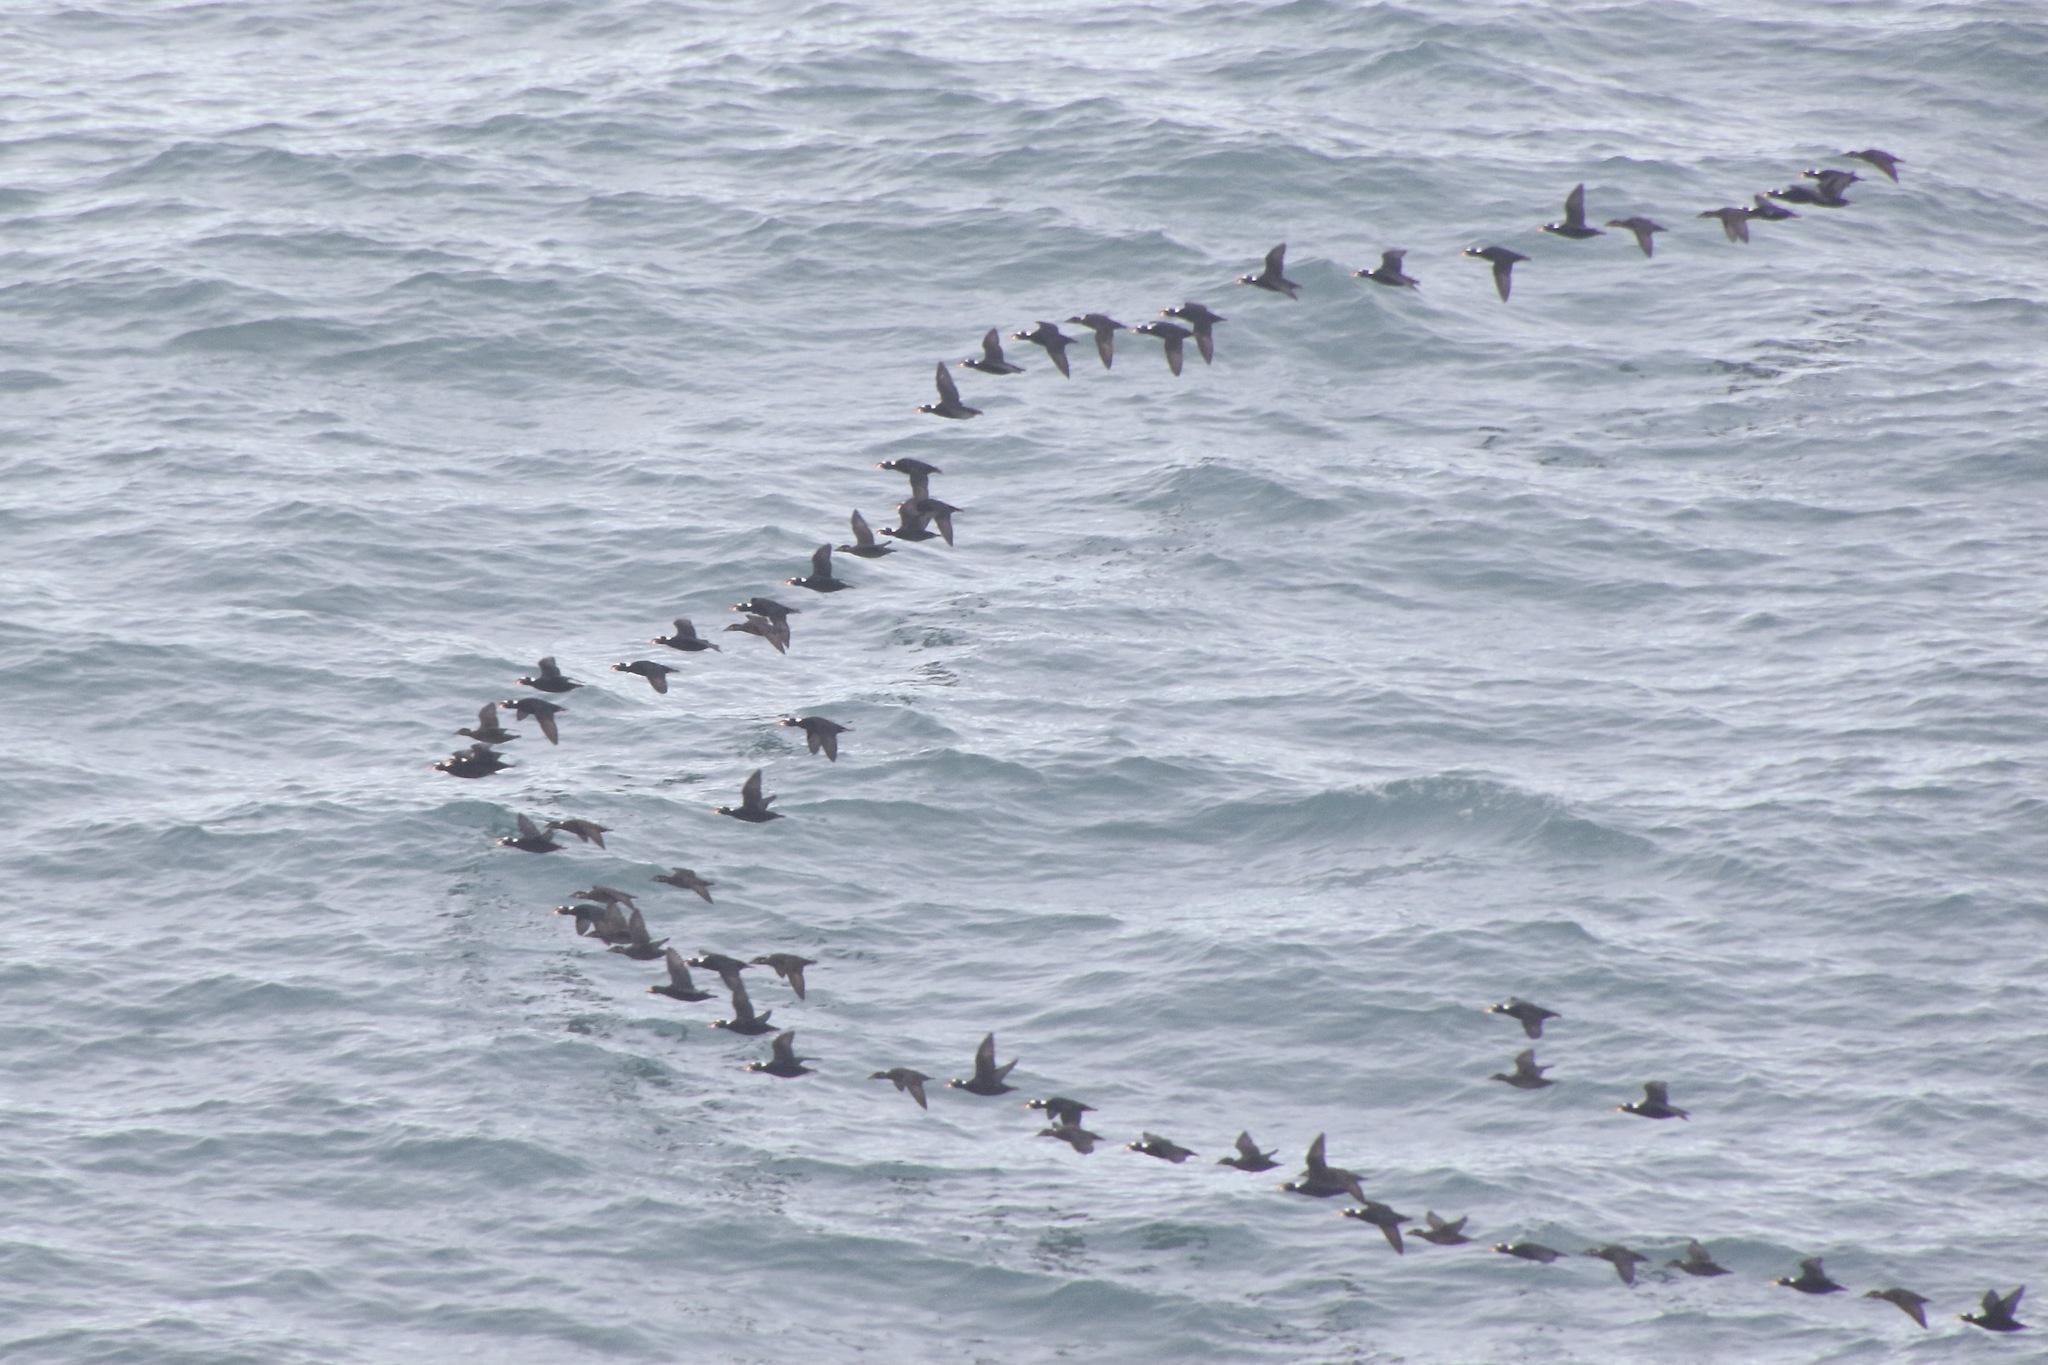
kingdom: Animalia
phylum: Chordata
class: Aves
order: Anseriformes
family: Anatidae
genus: Melanitta
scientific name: Melanitta perspicillata
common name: Surf scoter
